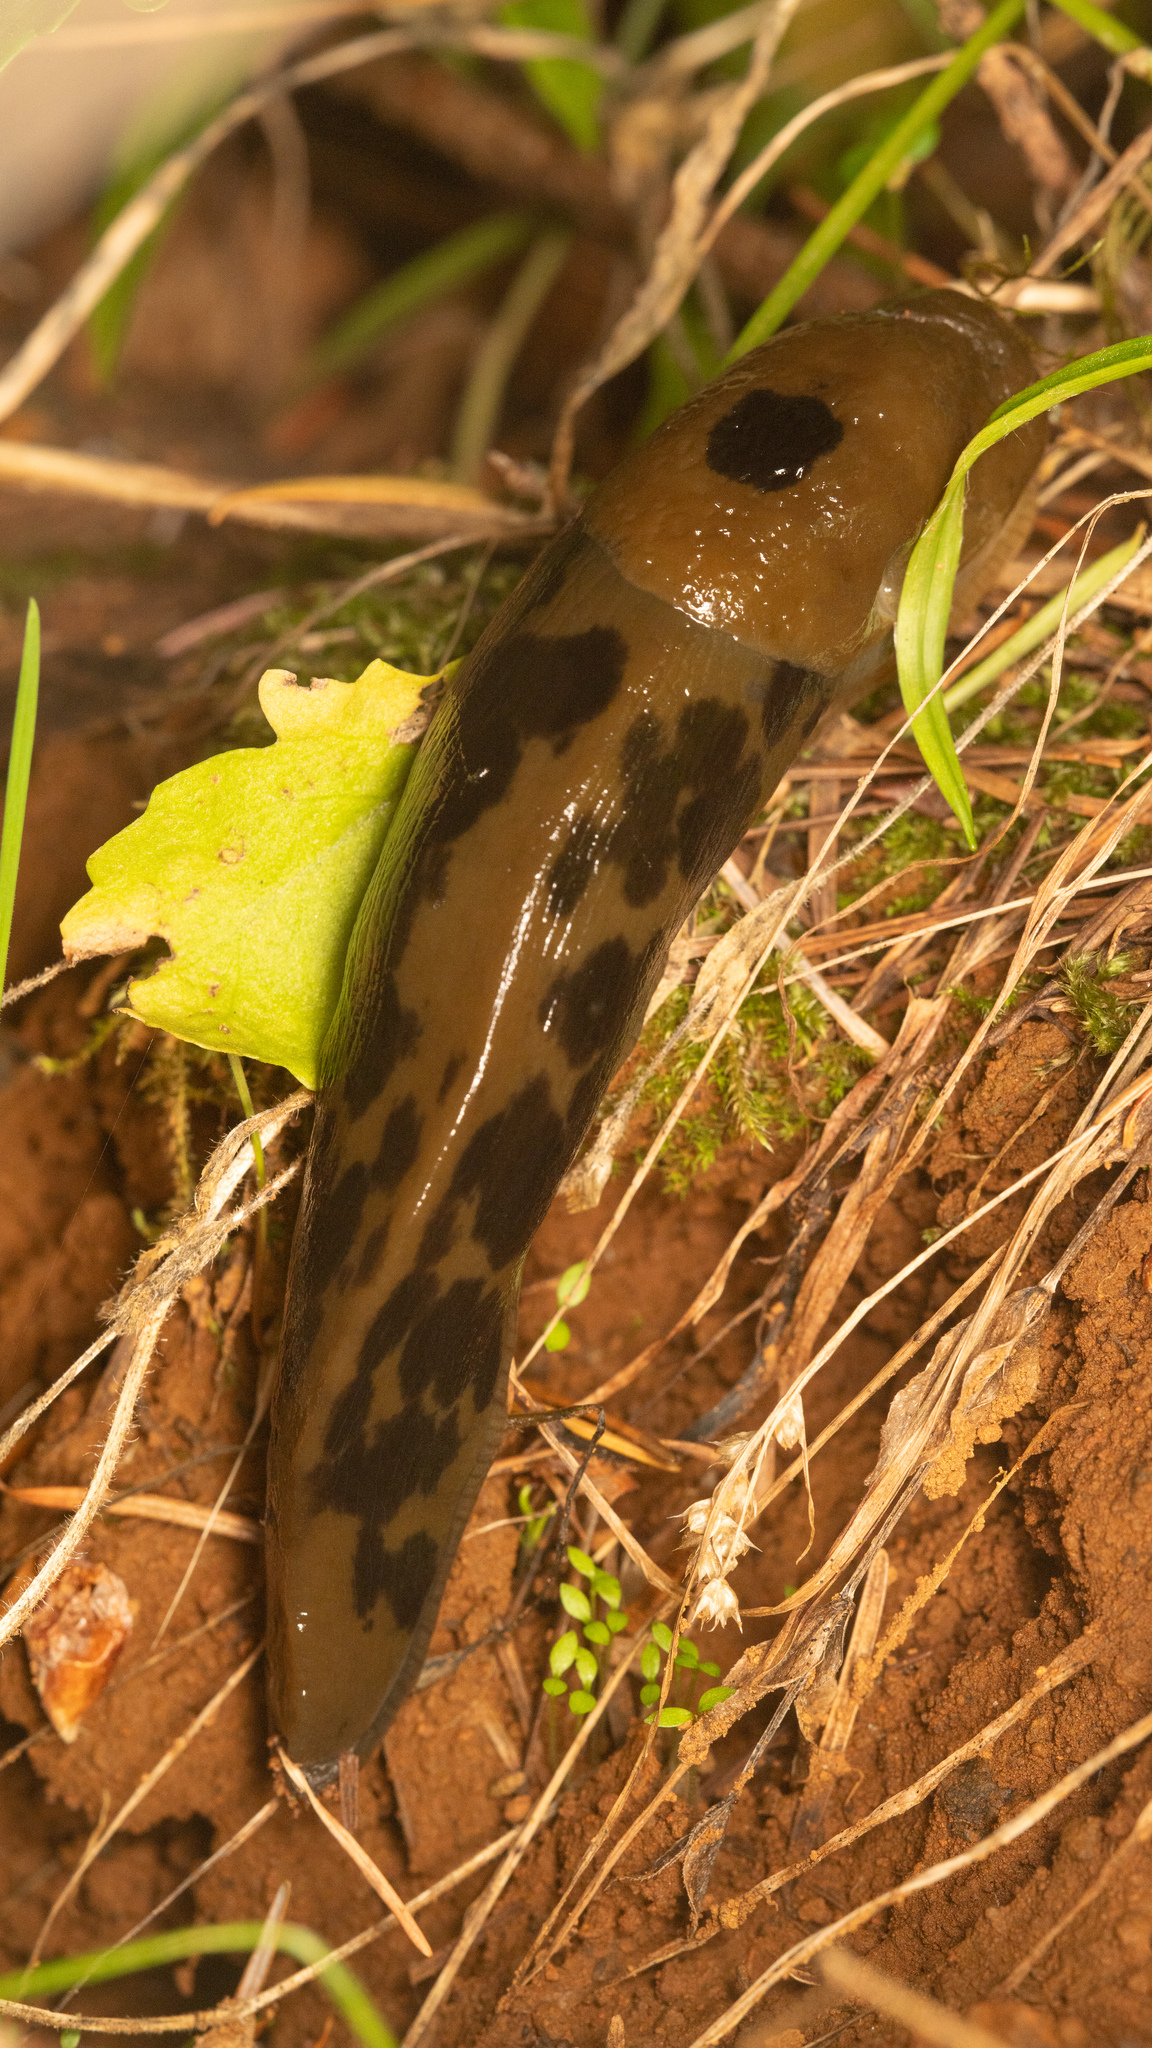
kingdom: Animalia
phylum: Mollusca
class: Gastropoda
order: Stylommatophora
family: Ariolimacidae
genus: Ariolimax
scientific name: Ariolimax columbianus
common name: Pacific banana slug
